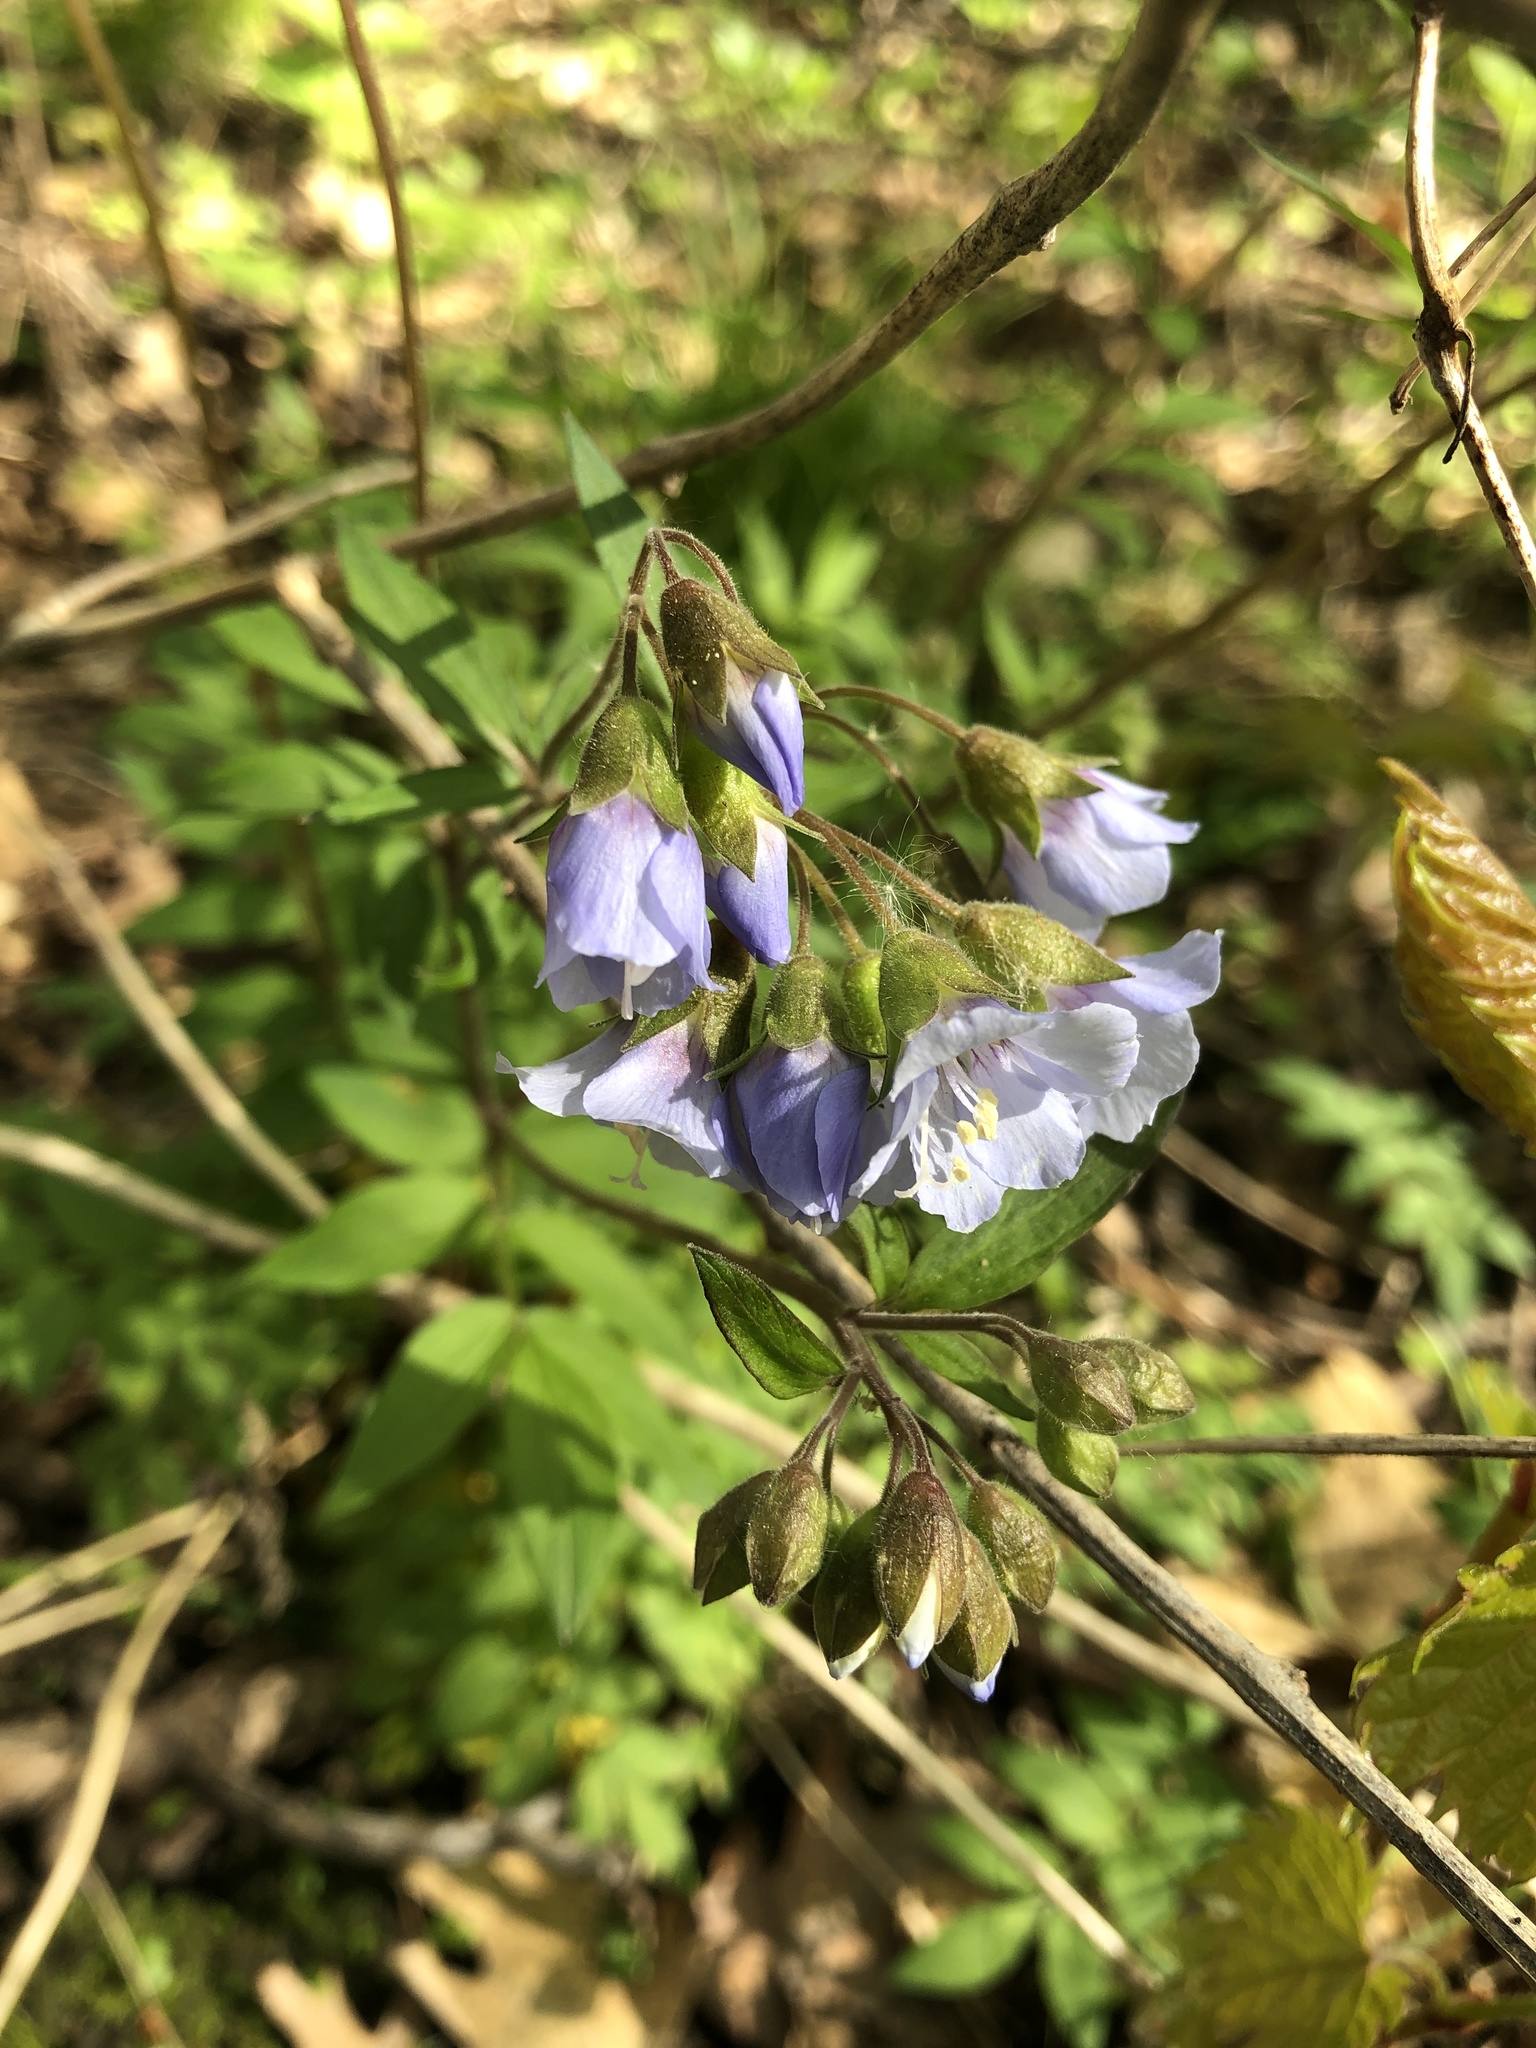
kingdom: Plantae
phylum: Tracheophyta
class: Magnoliopsida
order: Ericales
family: Polemoniaceae
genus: Polemonium
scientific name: Polemonium reptans
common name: Creeping jacob's-ladder
